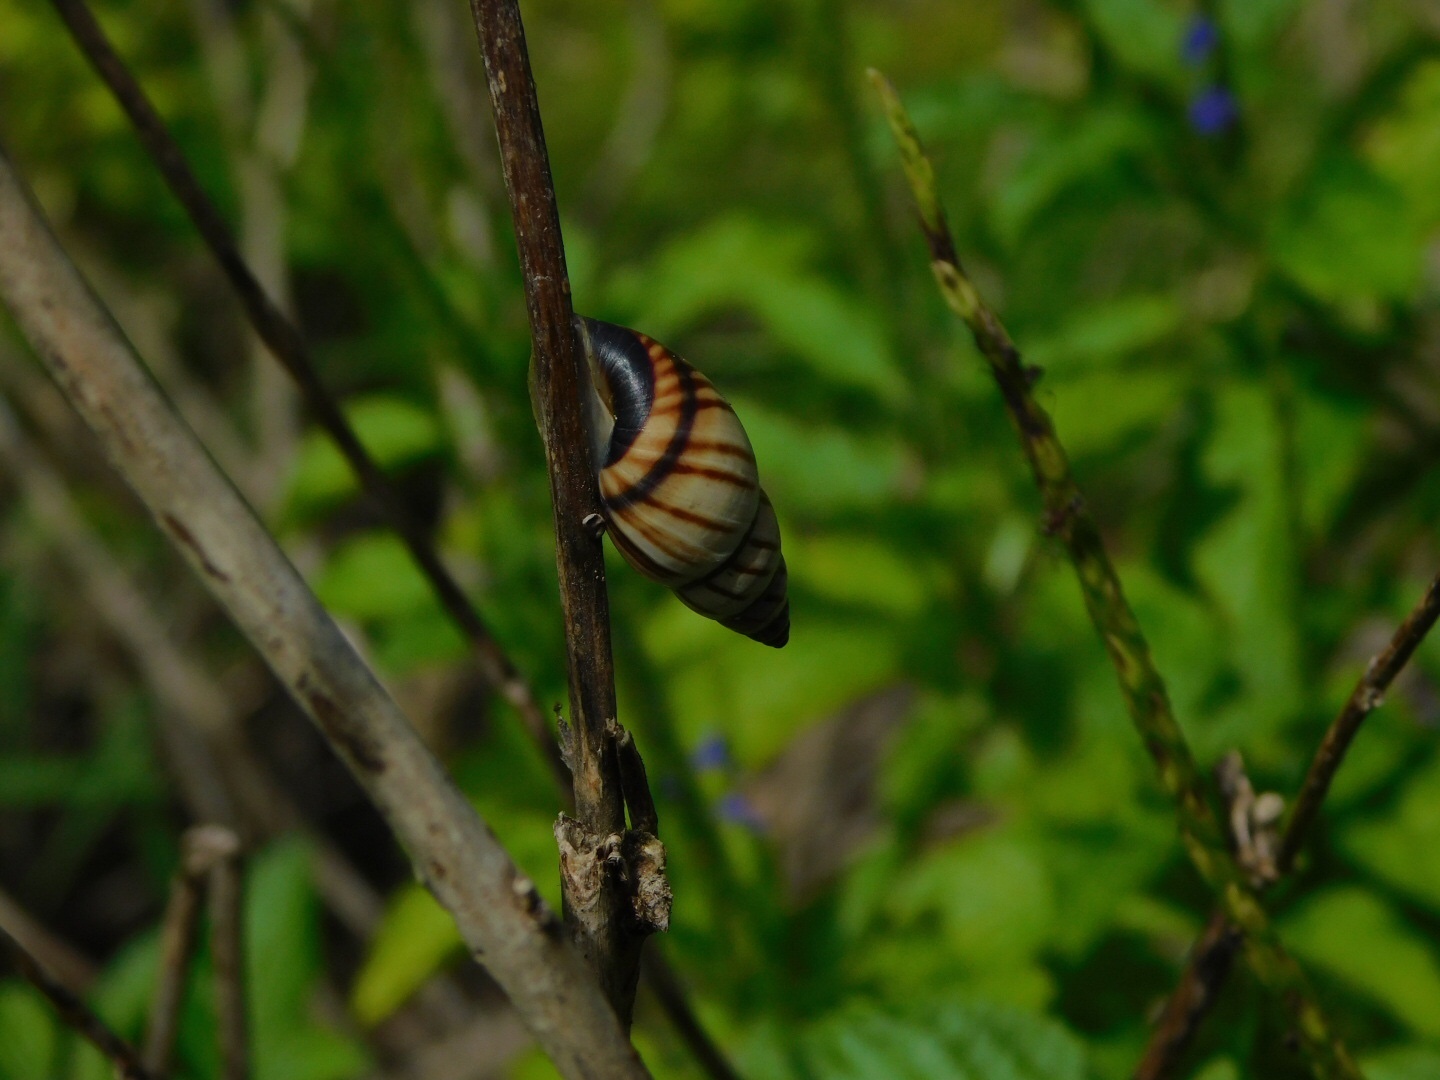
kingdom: Animalia
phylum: Mollusca
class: Gastropoda
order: Stylommatophora
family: Bulimulidae
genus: Drymaeus
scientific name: Drymaeus
